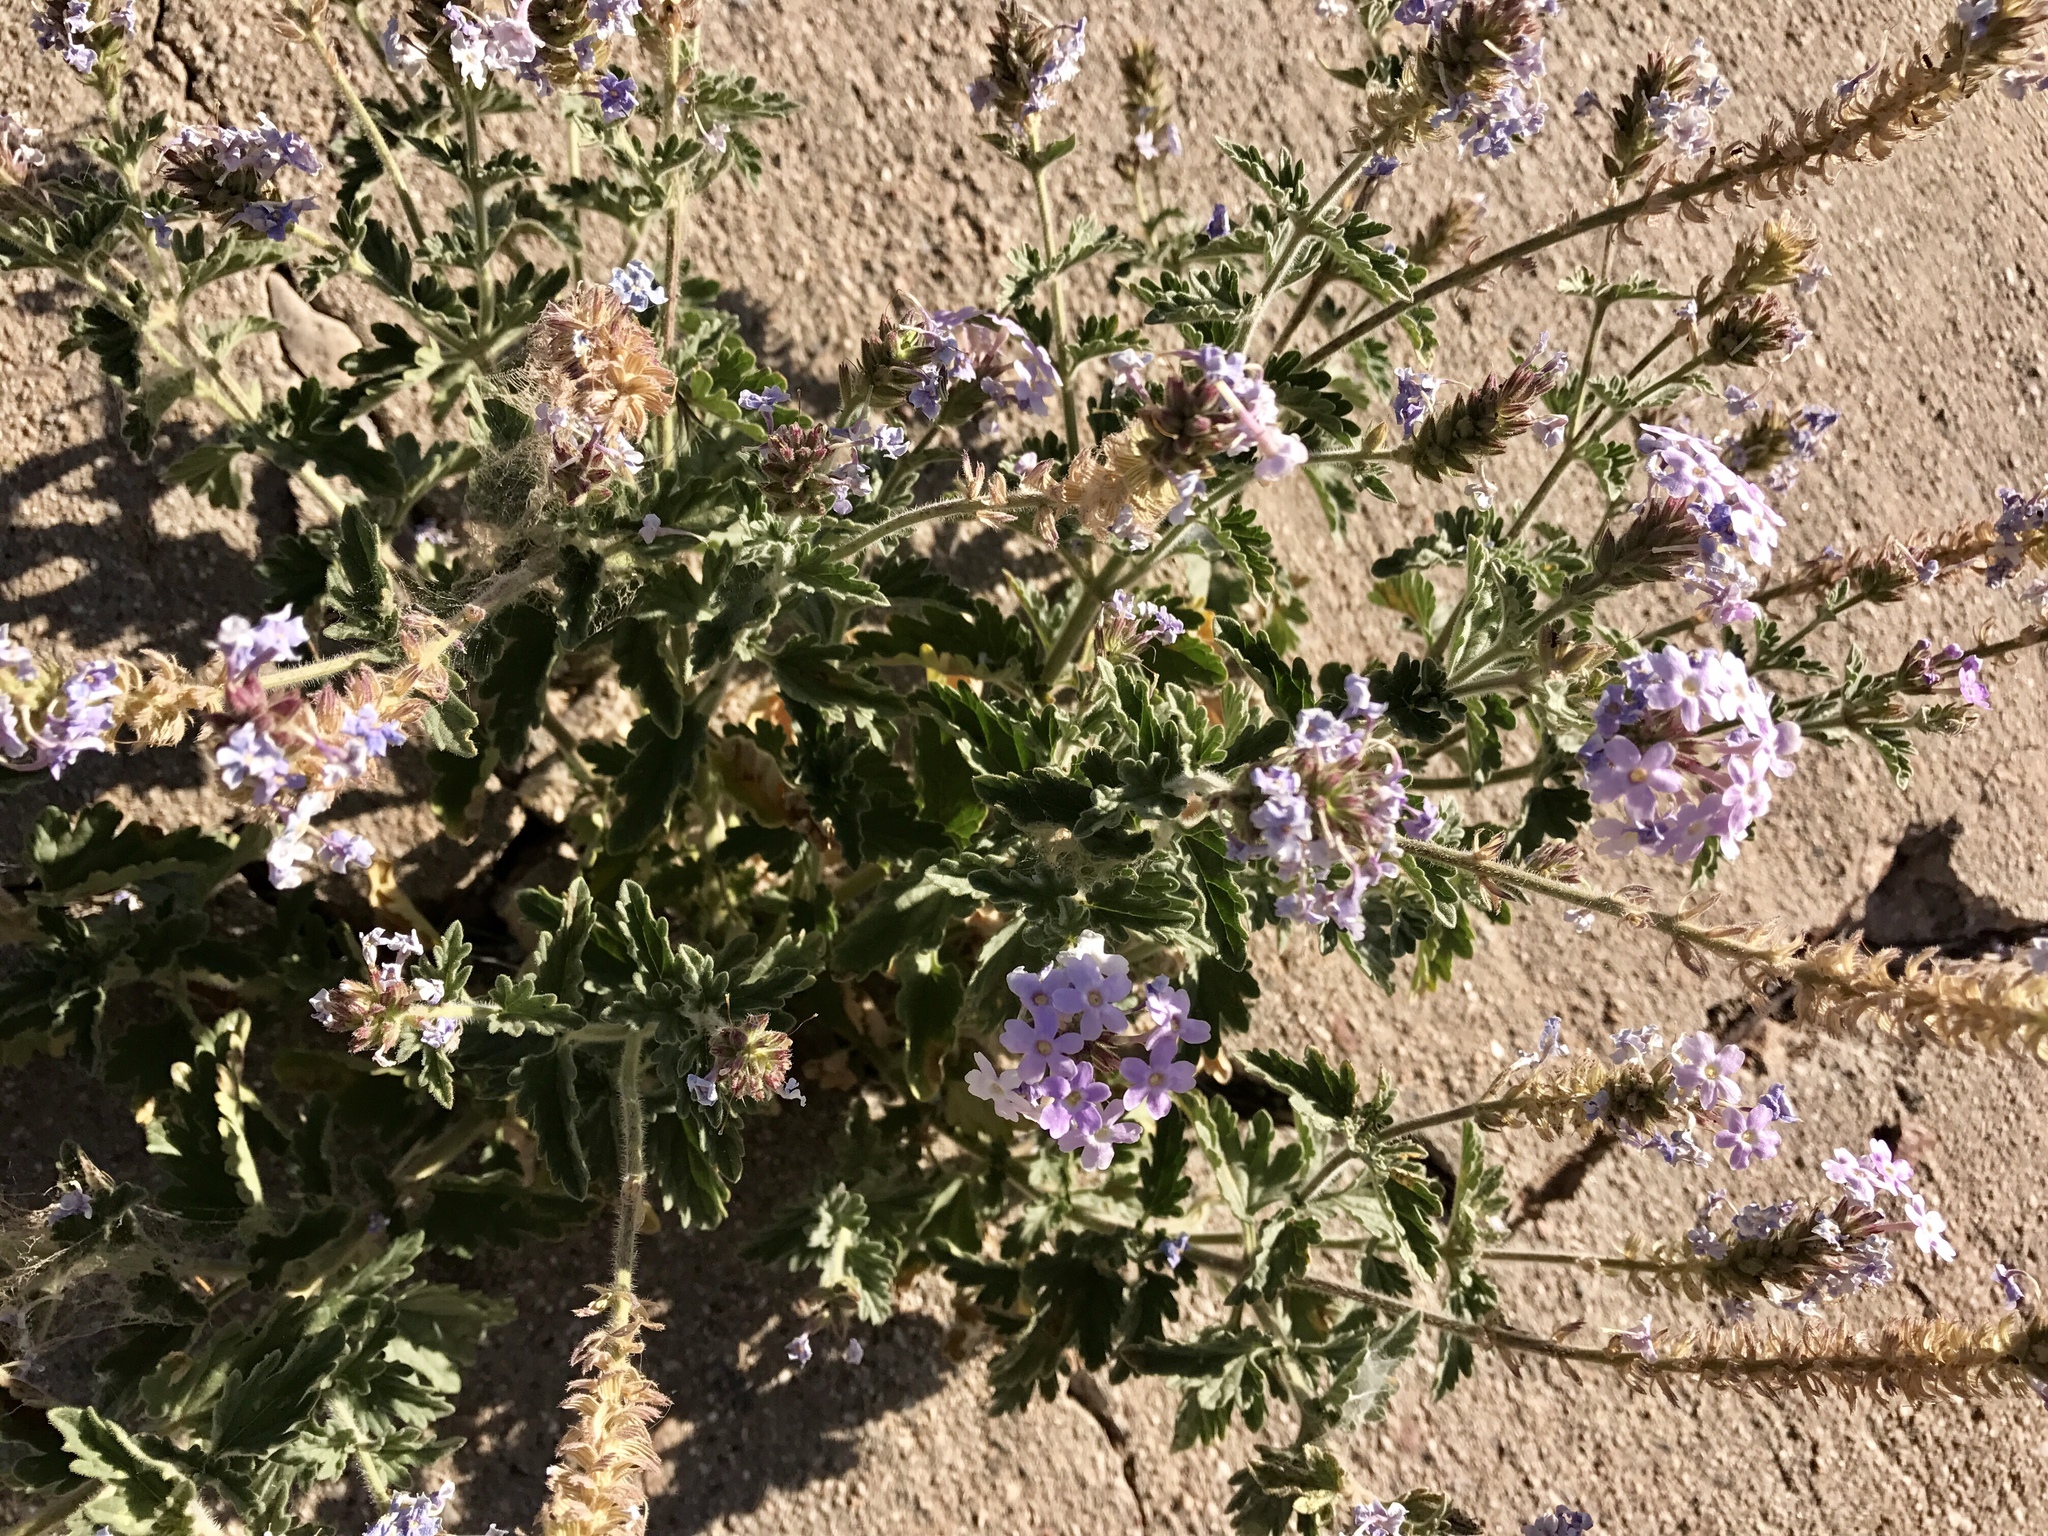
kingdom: Plantae
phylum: Tracheophyta
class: Magnoliopsida
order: Lamiales
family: Verbenaceae
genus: Verbena
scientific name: Verbena gooddingii
